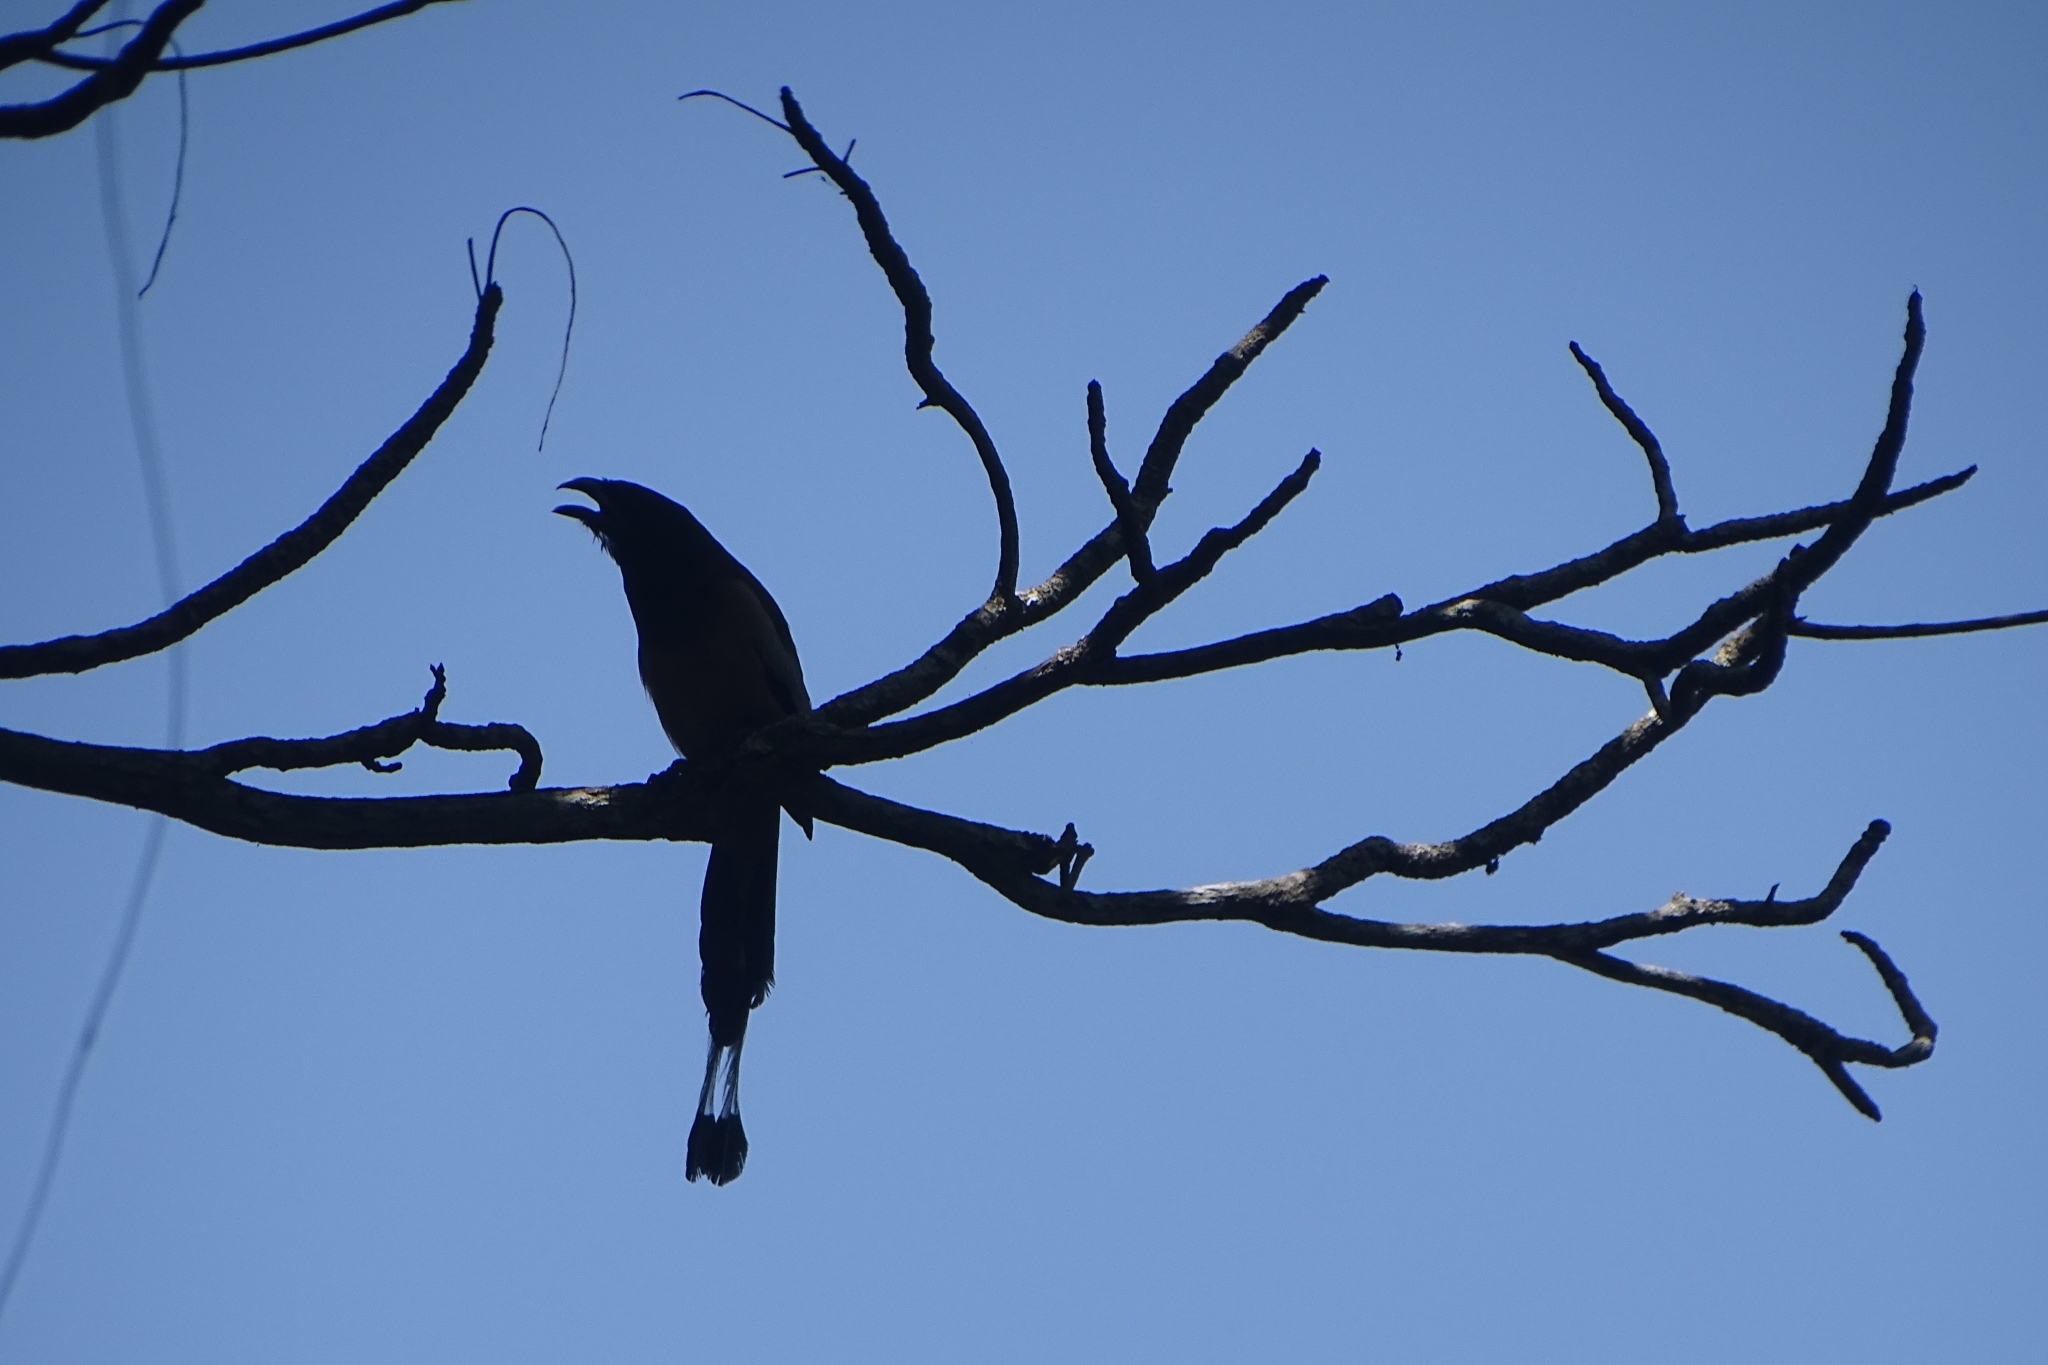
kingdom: Animalia
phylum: Chordata
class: Aves
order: Passeriformes
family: Corvidae
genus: Dendrocitta
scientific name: Dendrocitta vagabunda
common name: Rufous treepie
